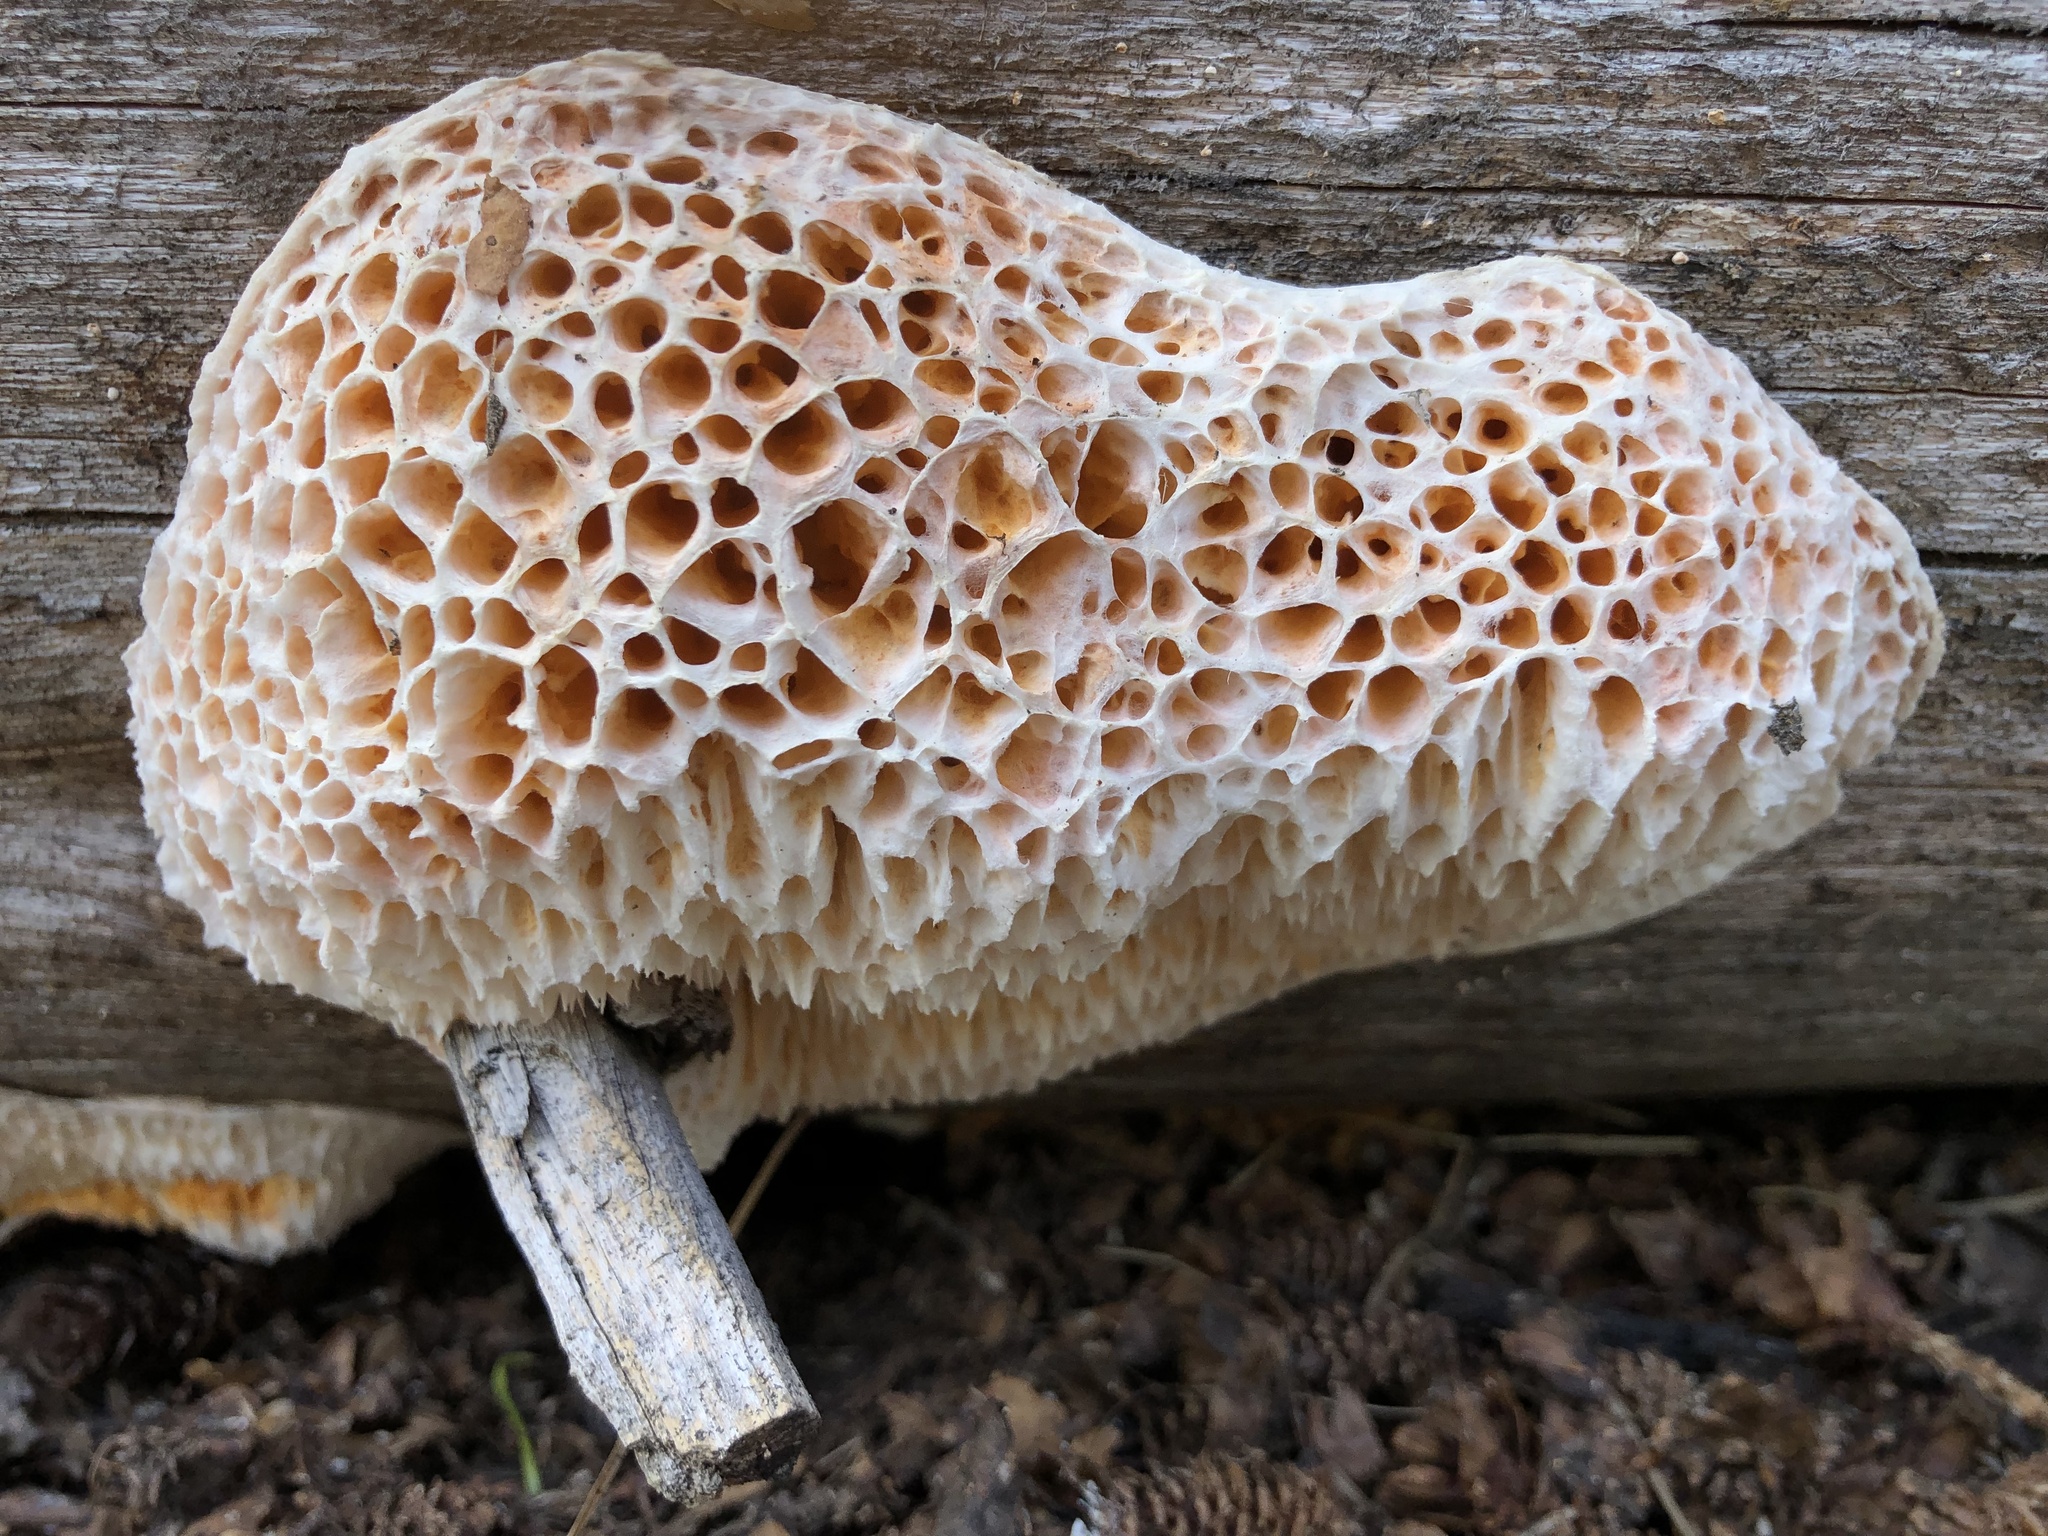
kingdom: Fungi
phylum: Basidiomycota
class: Agaricomycetes
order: Polyporales
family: Pycnoporellaceae
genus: Pycnoporellus
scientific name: Pycnoporellus alboluteus
